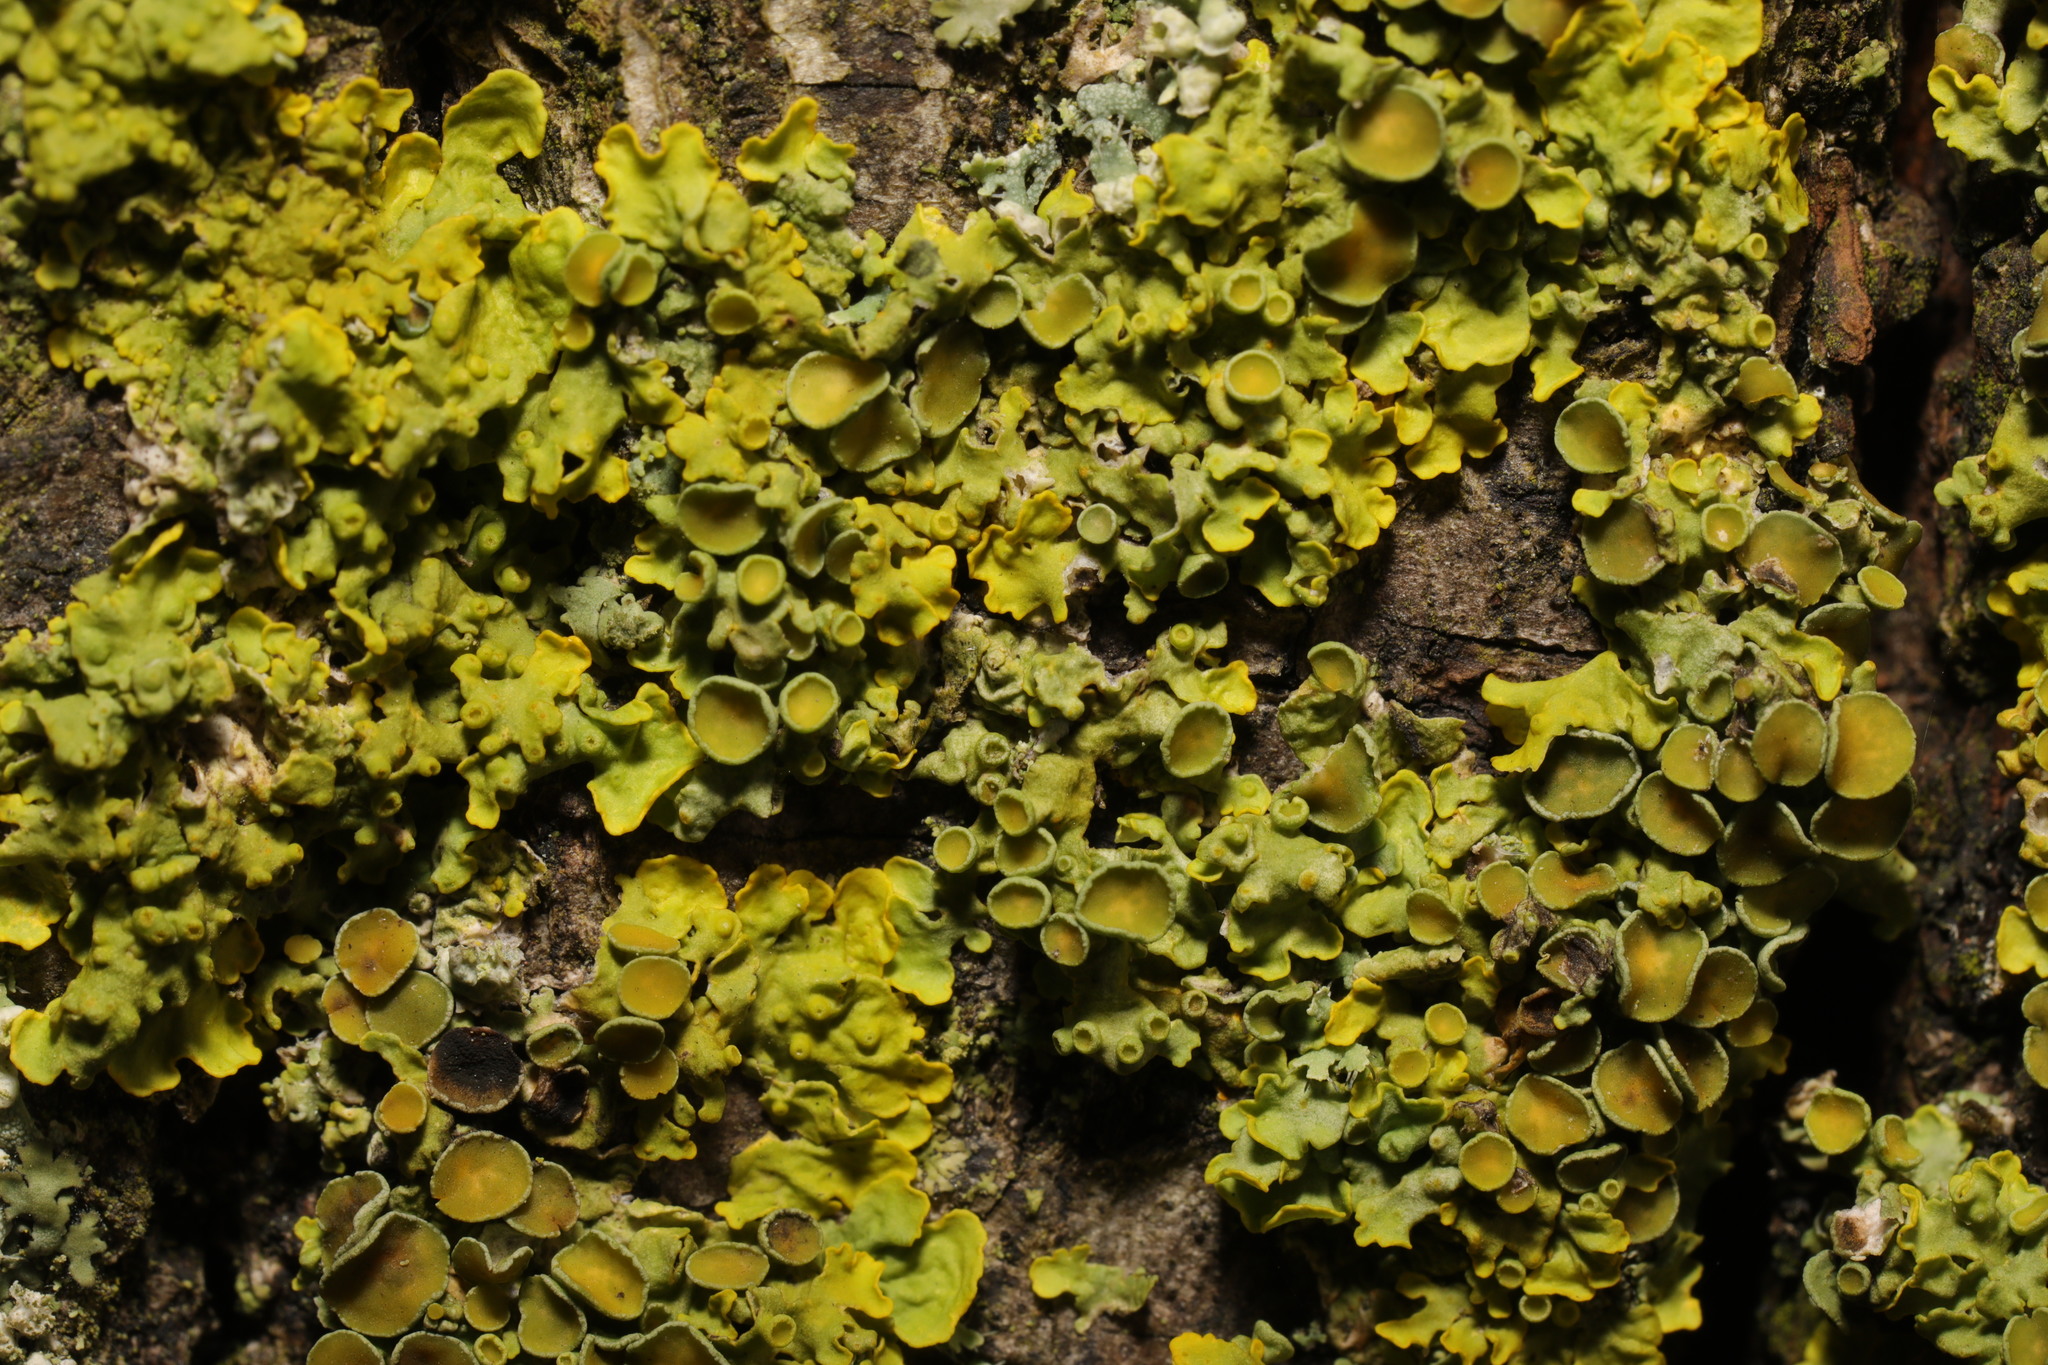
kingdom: Fungi
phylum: Ascomycota
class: Lecanoromycetes
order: Teloschistales
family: Teloschistaceae
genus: Xanthoria
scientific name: Xanthoria parietina
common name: Common orange lichen
